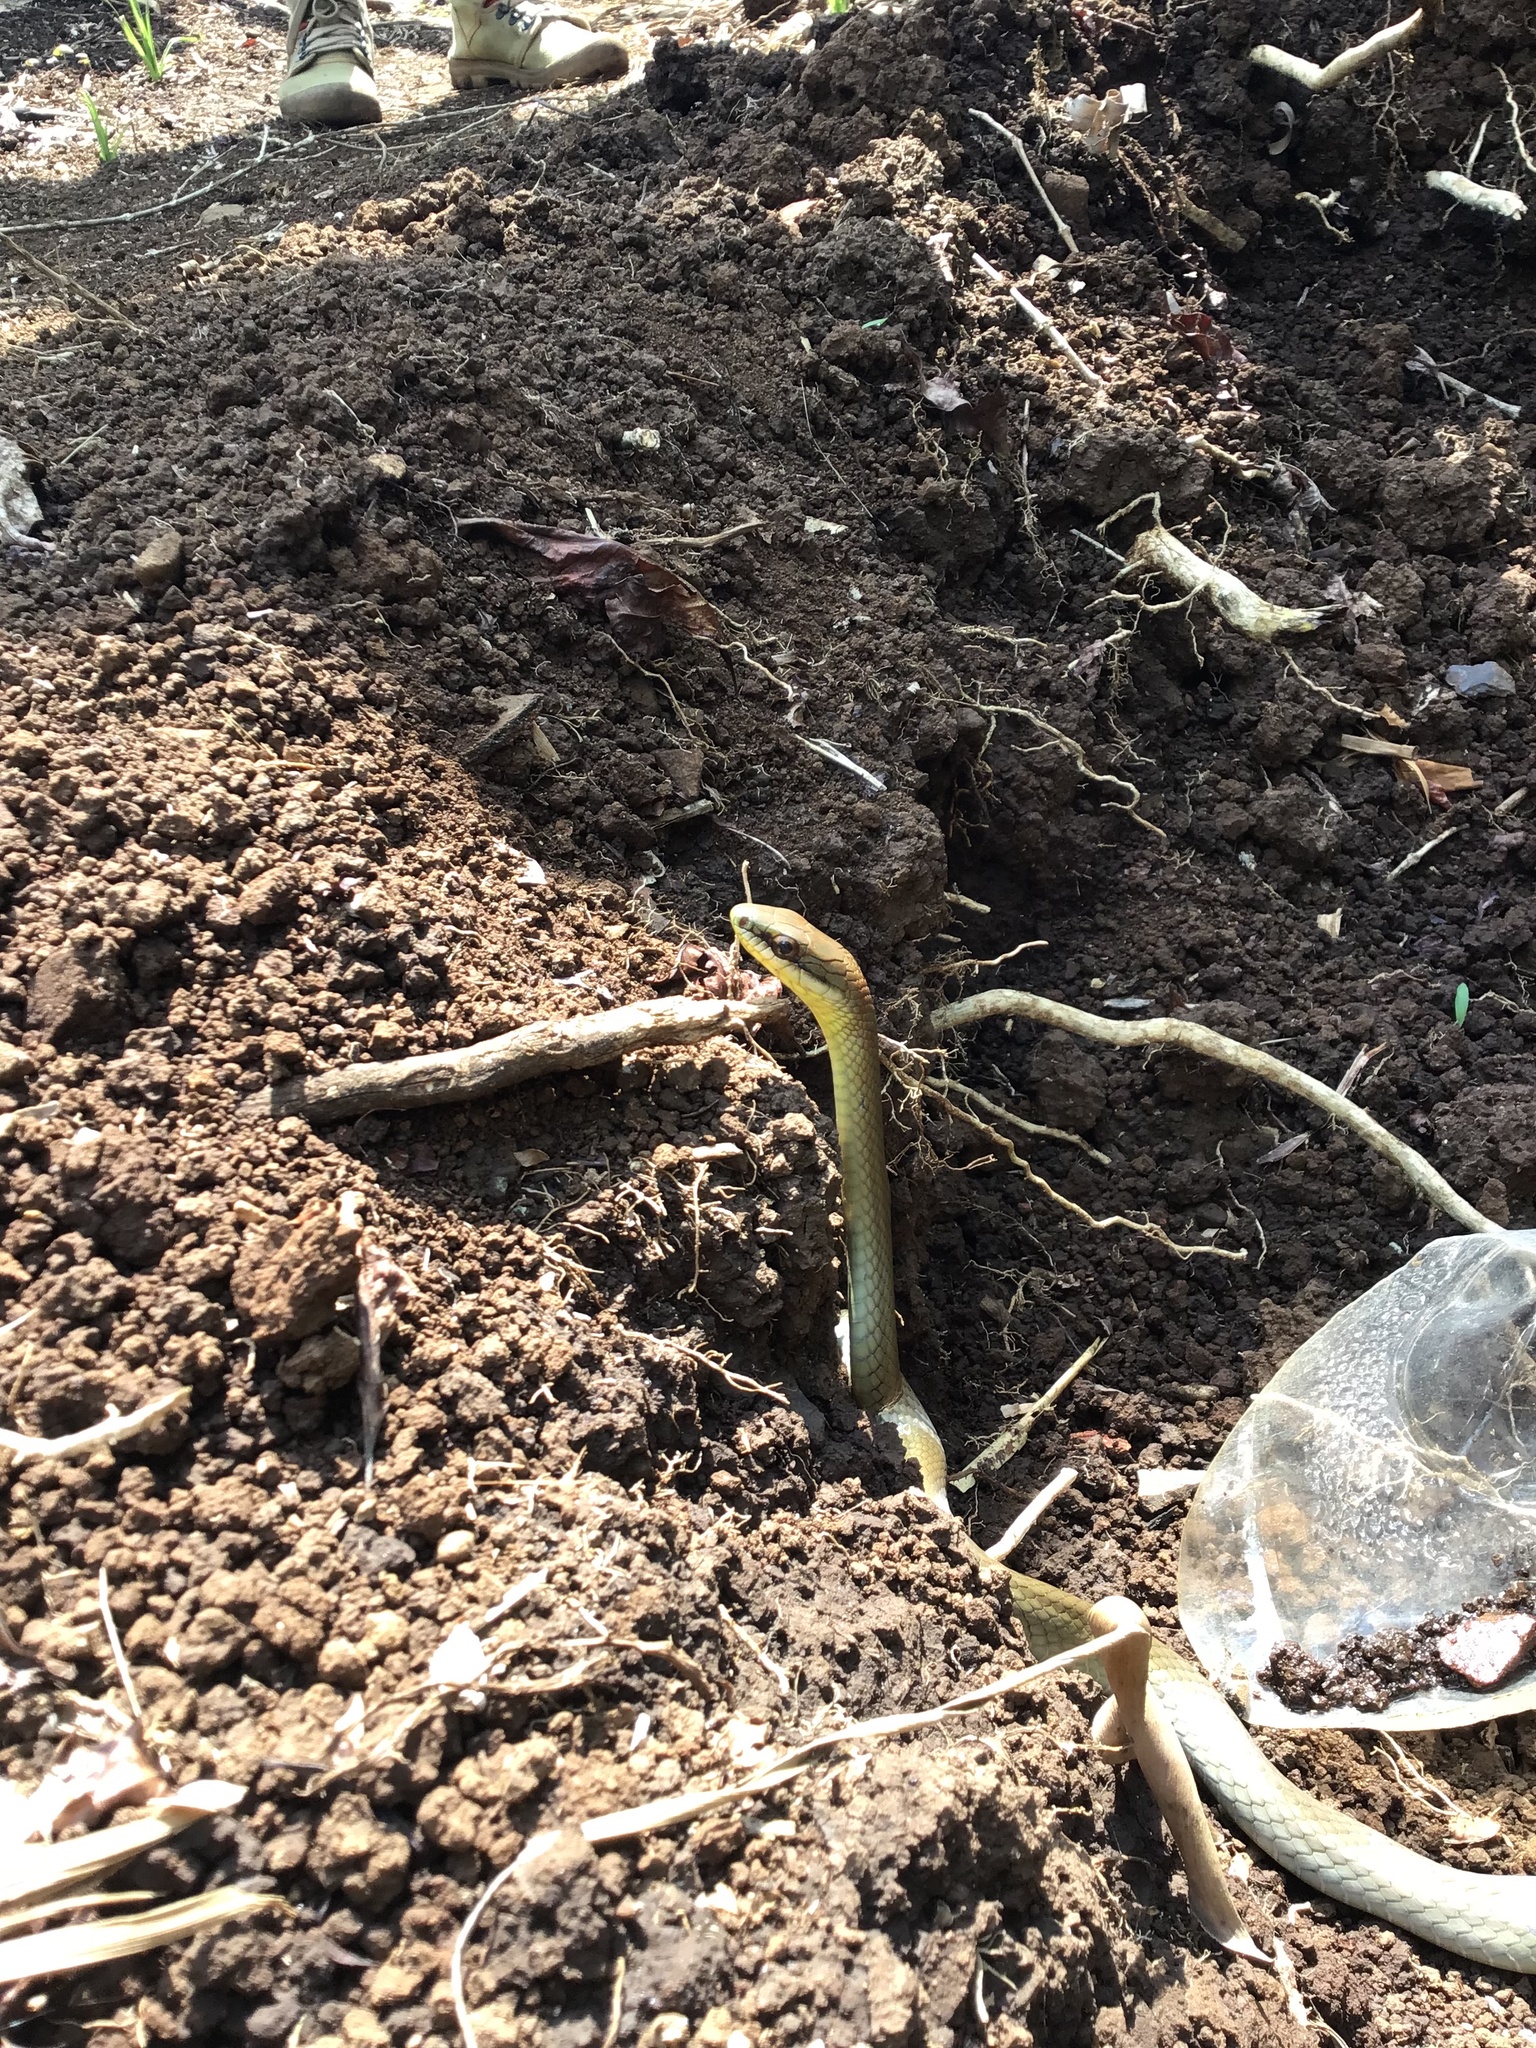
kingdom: Animalia
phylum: Chordata
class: Squamata
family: Colubridae
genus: Mastigodryas
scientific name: Mastigodryas melanolomus
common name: Salmon-bellied racer
